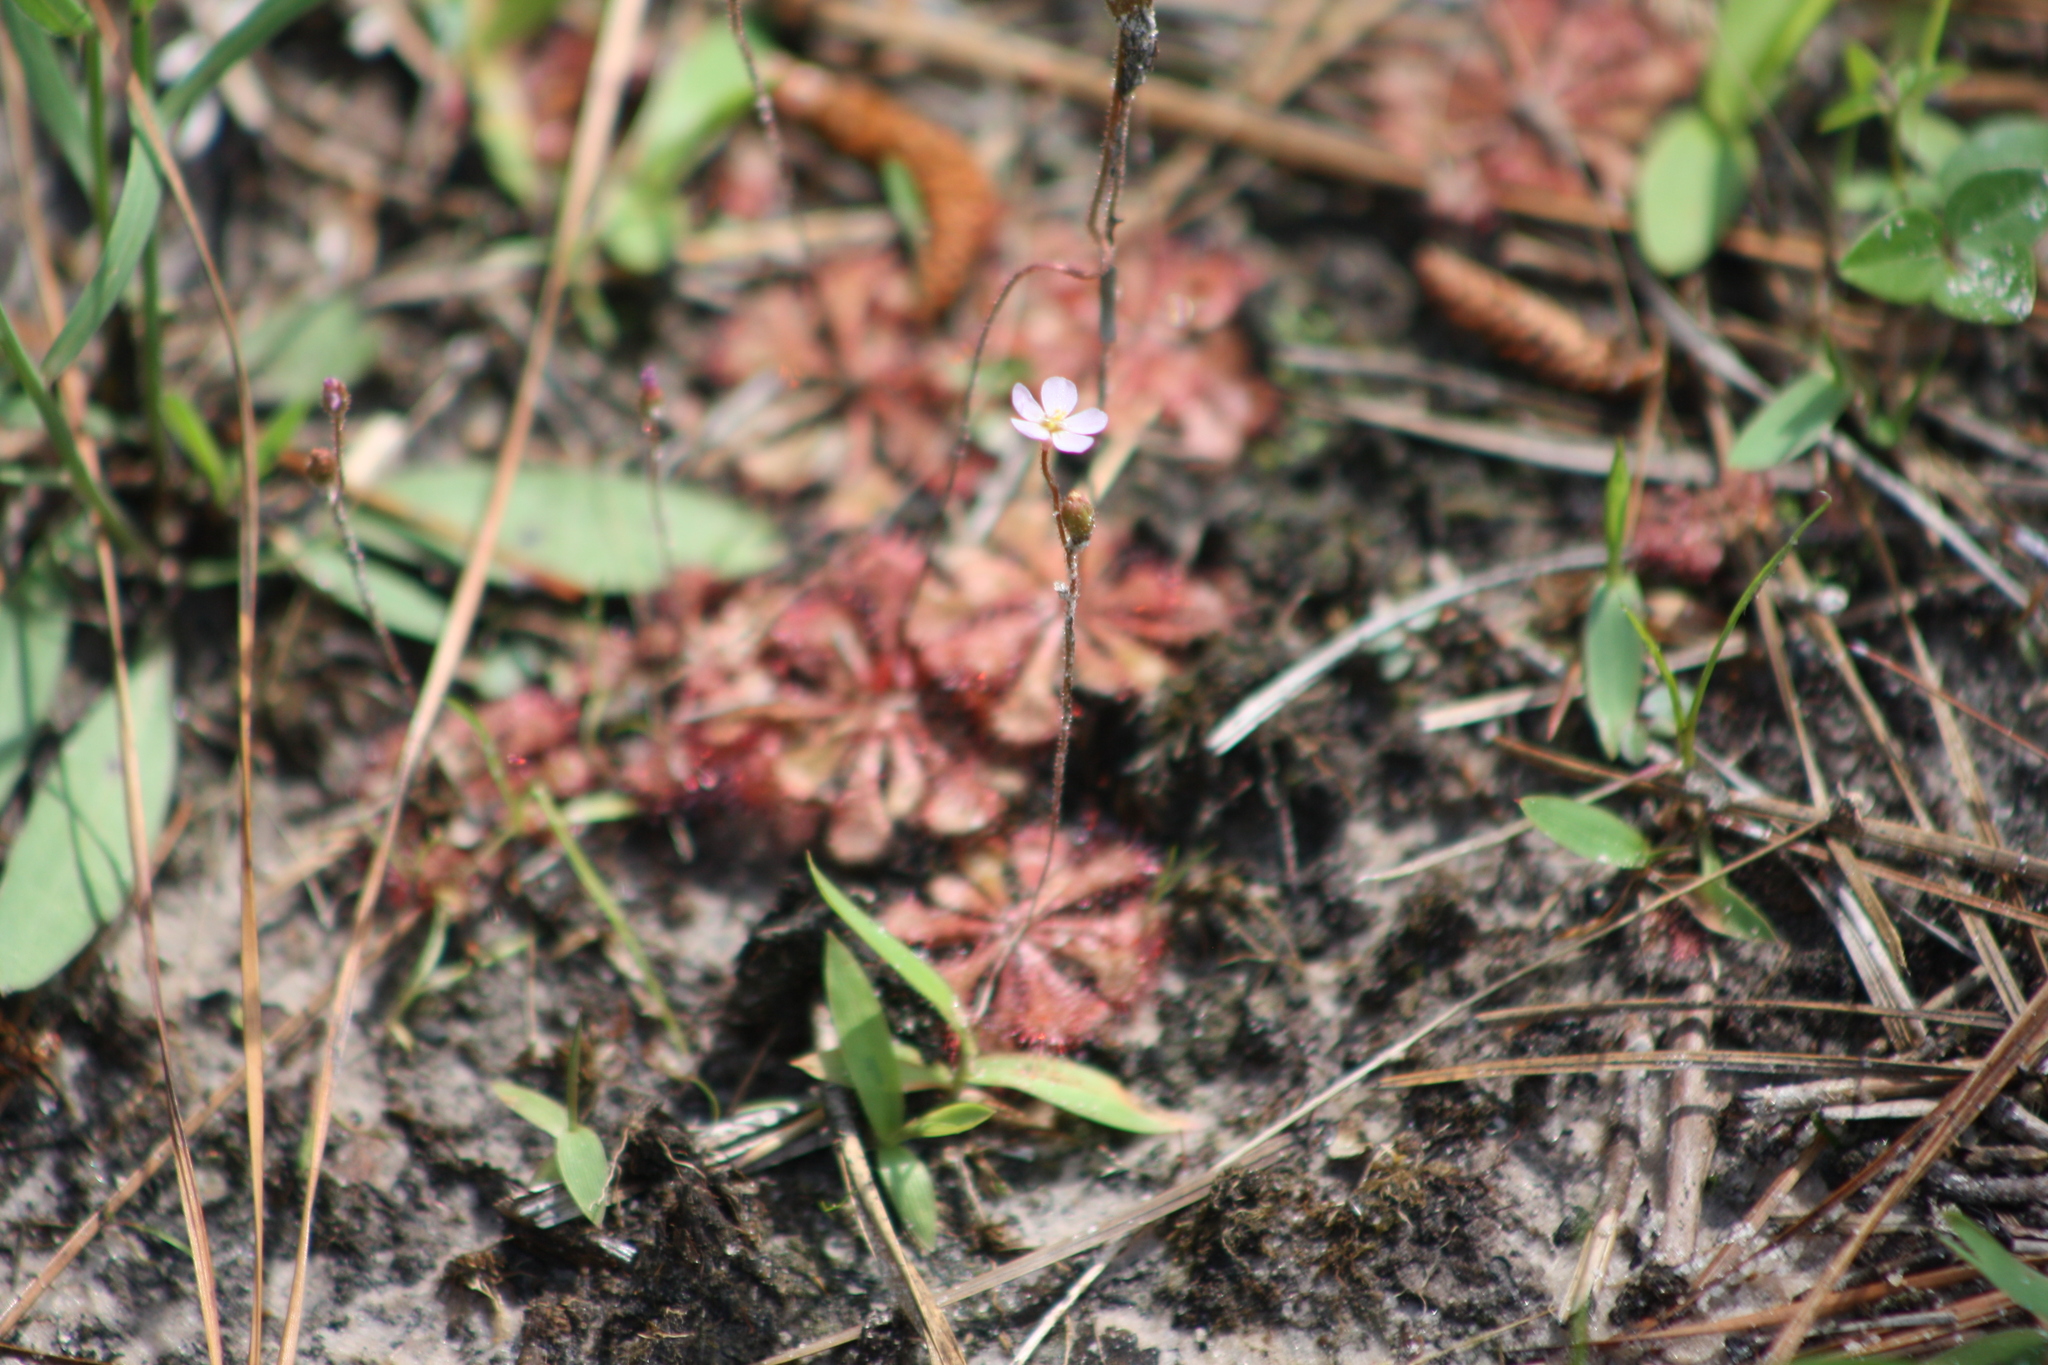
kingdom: Plantae
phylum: Tracheophyta
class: Magnoliopsida
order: Caryophyllales
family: Droseraceae
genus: Drosera
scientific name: Drosera brevifolia
